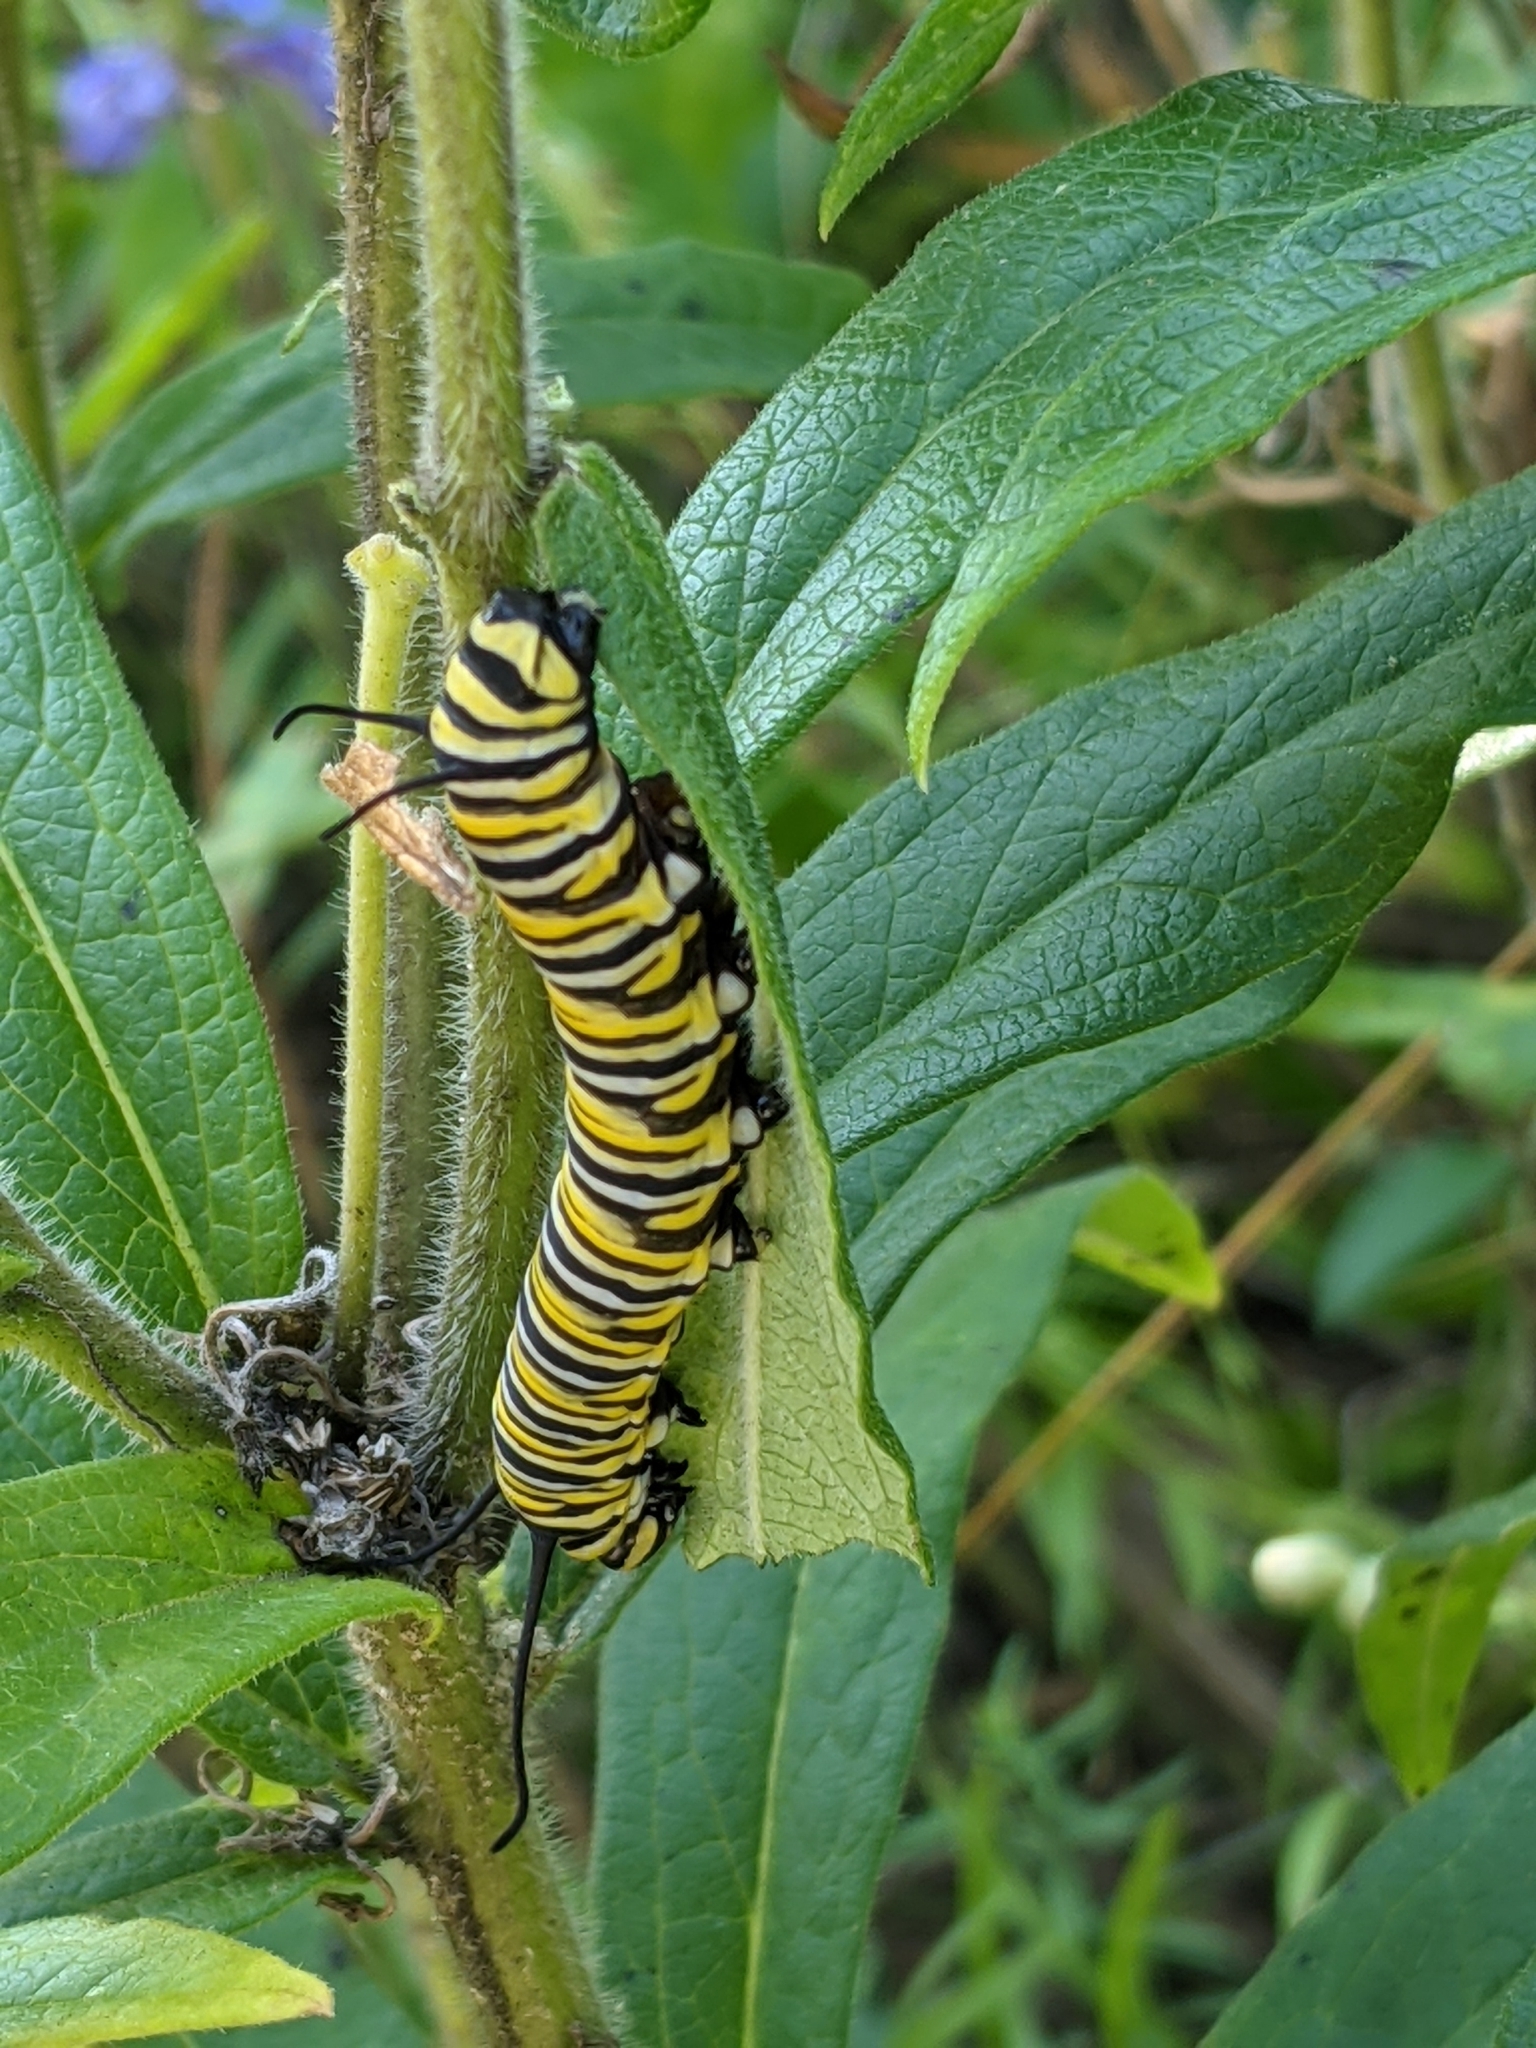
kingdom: Animalia
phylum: Arthropoda
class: Insecta
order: Lepidoptera
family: Nymphalidae
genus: Danaus
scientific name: Danaus plexippus
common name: Monarch
